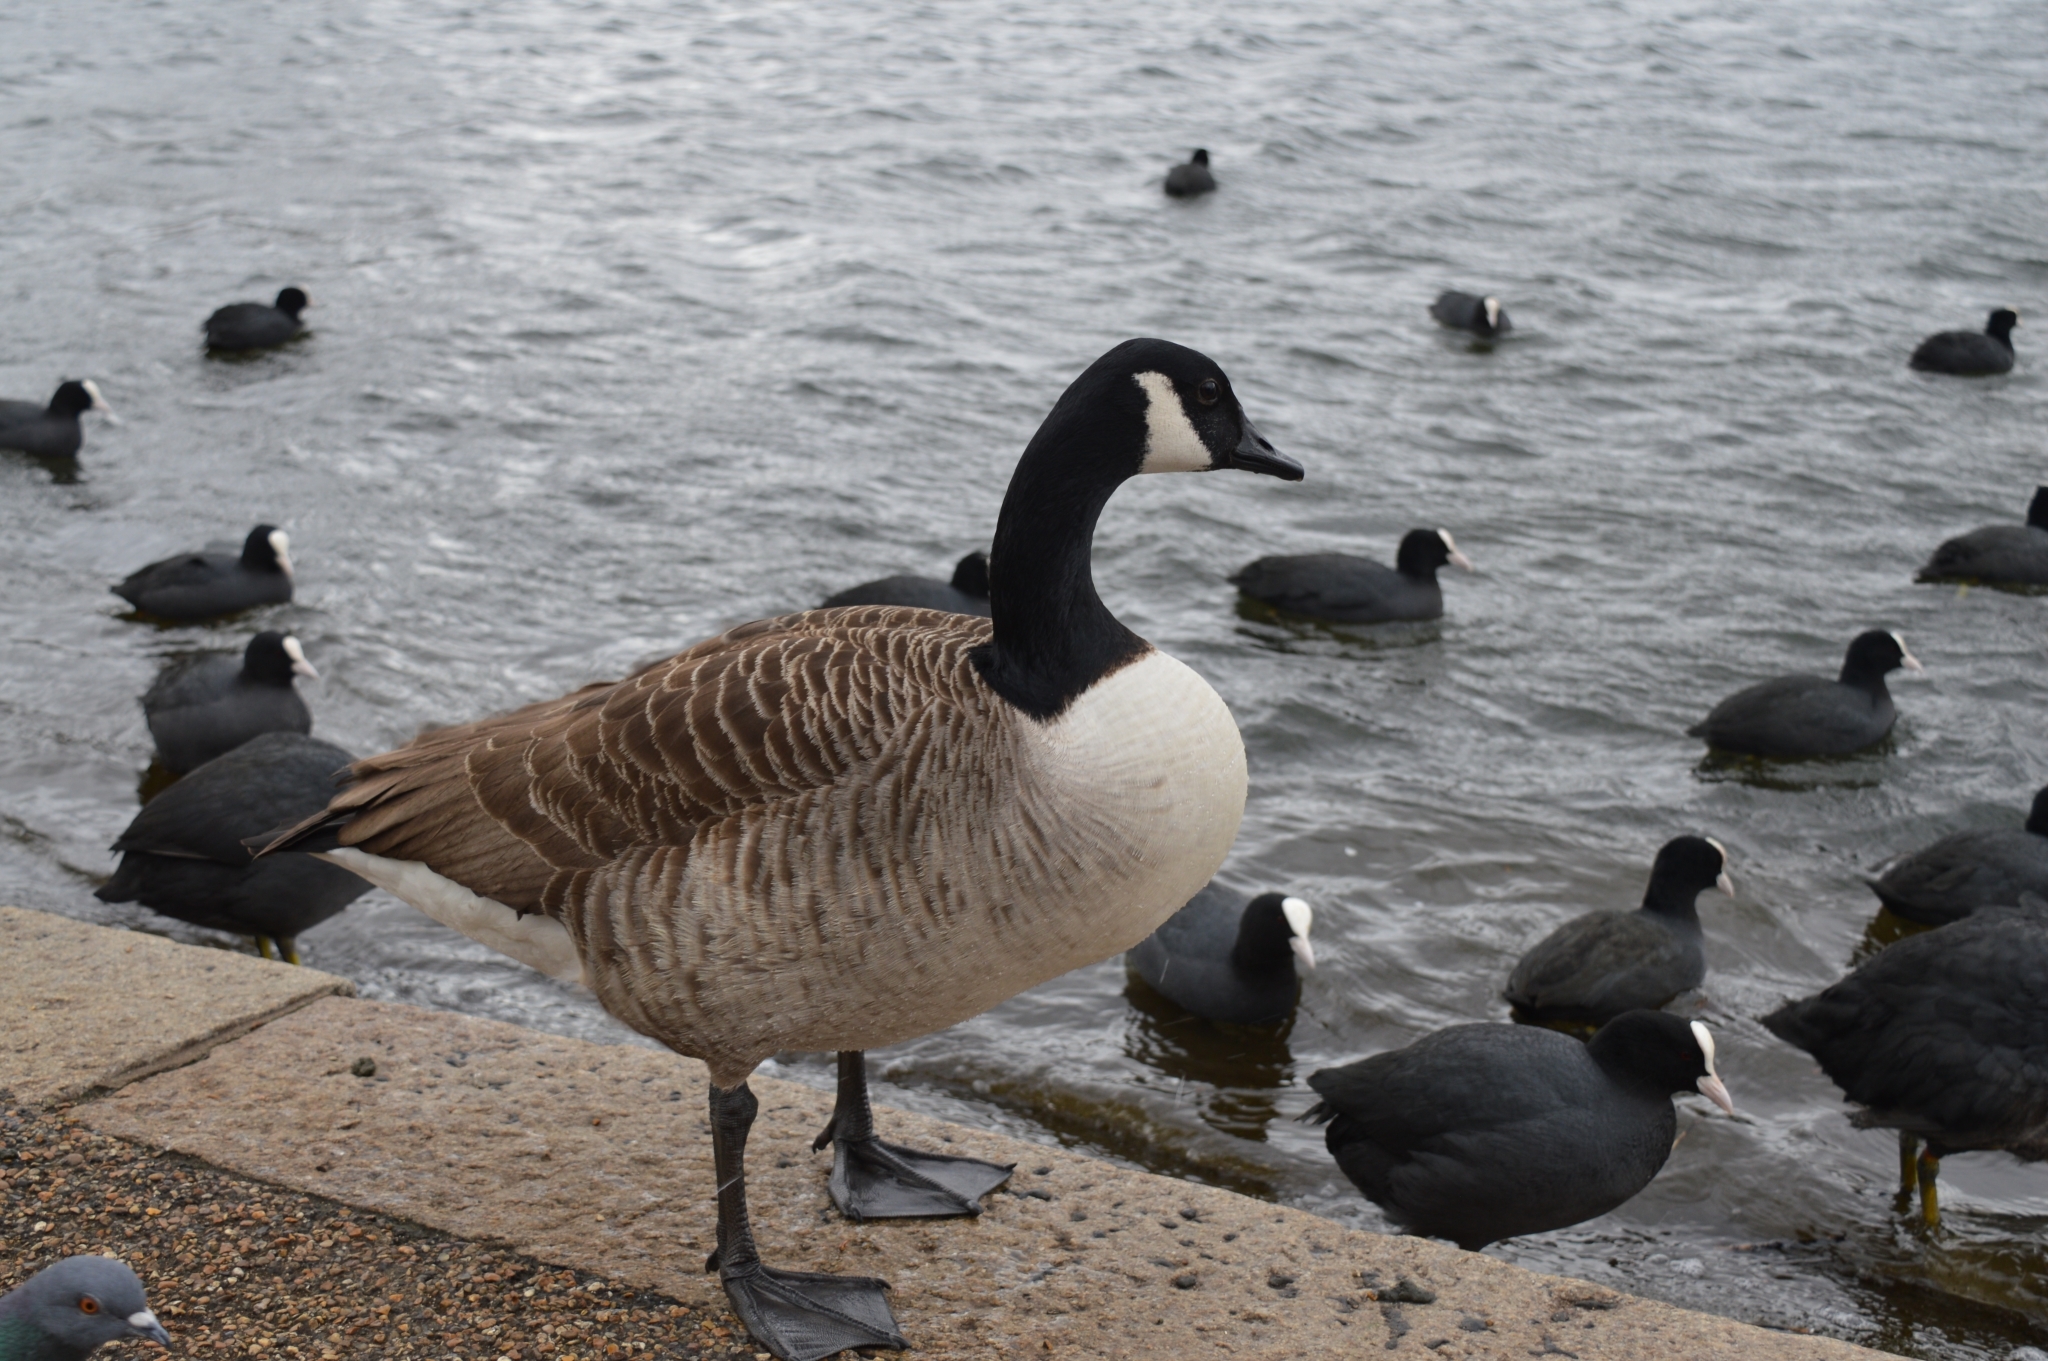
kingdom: Animalia
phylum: Chordata
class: Aves
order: Anseriformes
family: Anatidae
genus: Branta
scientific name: Branta canadensis
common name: Canada goose
